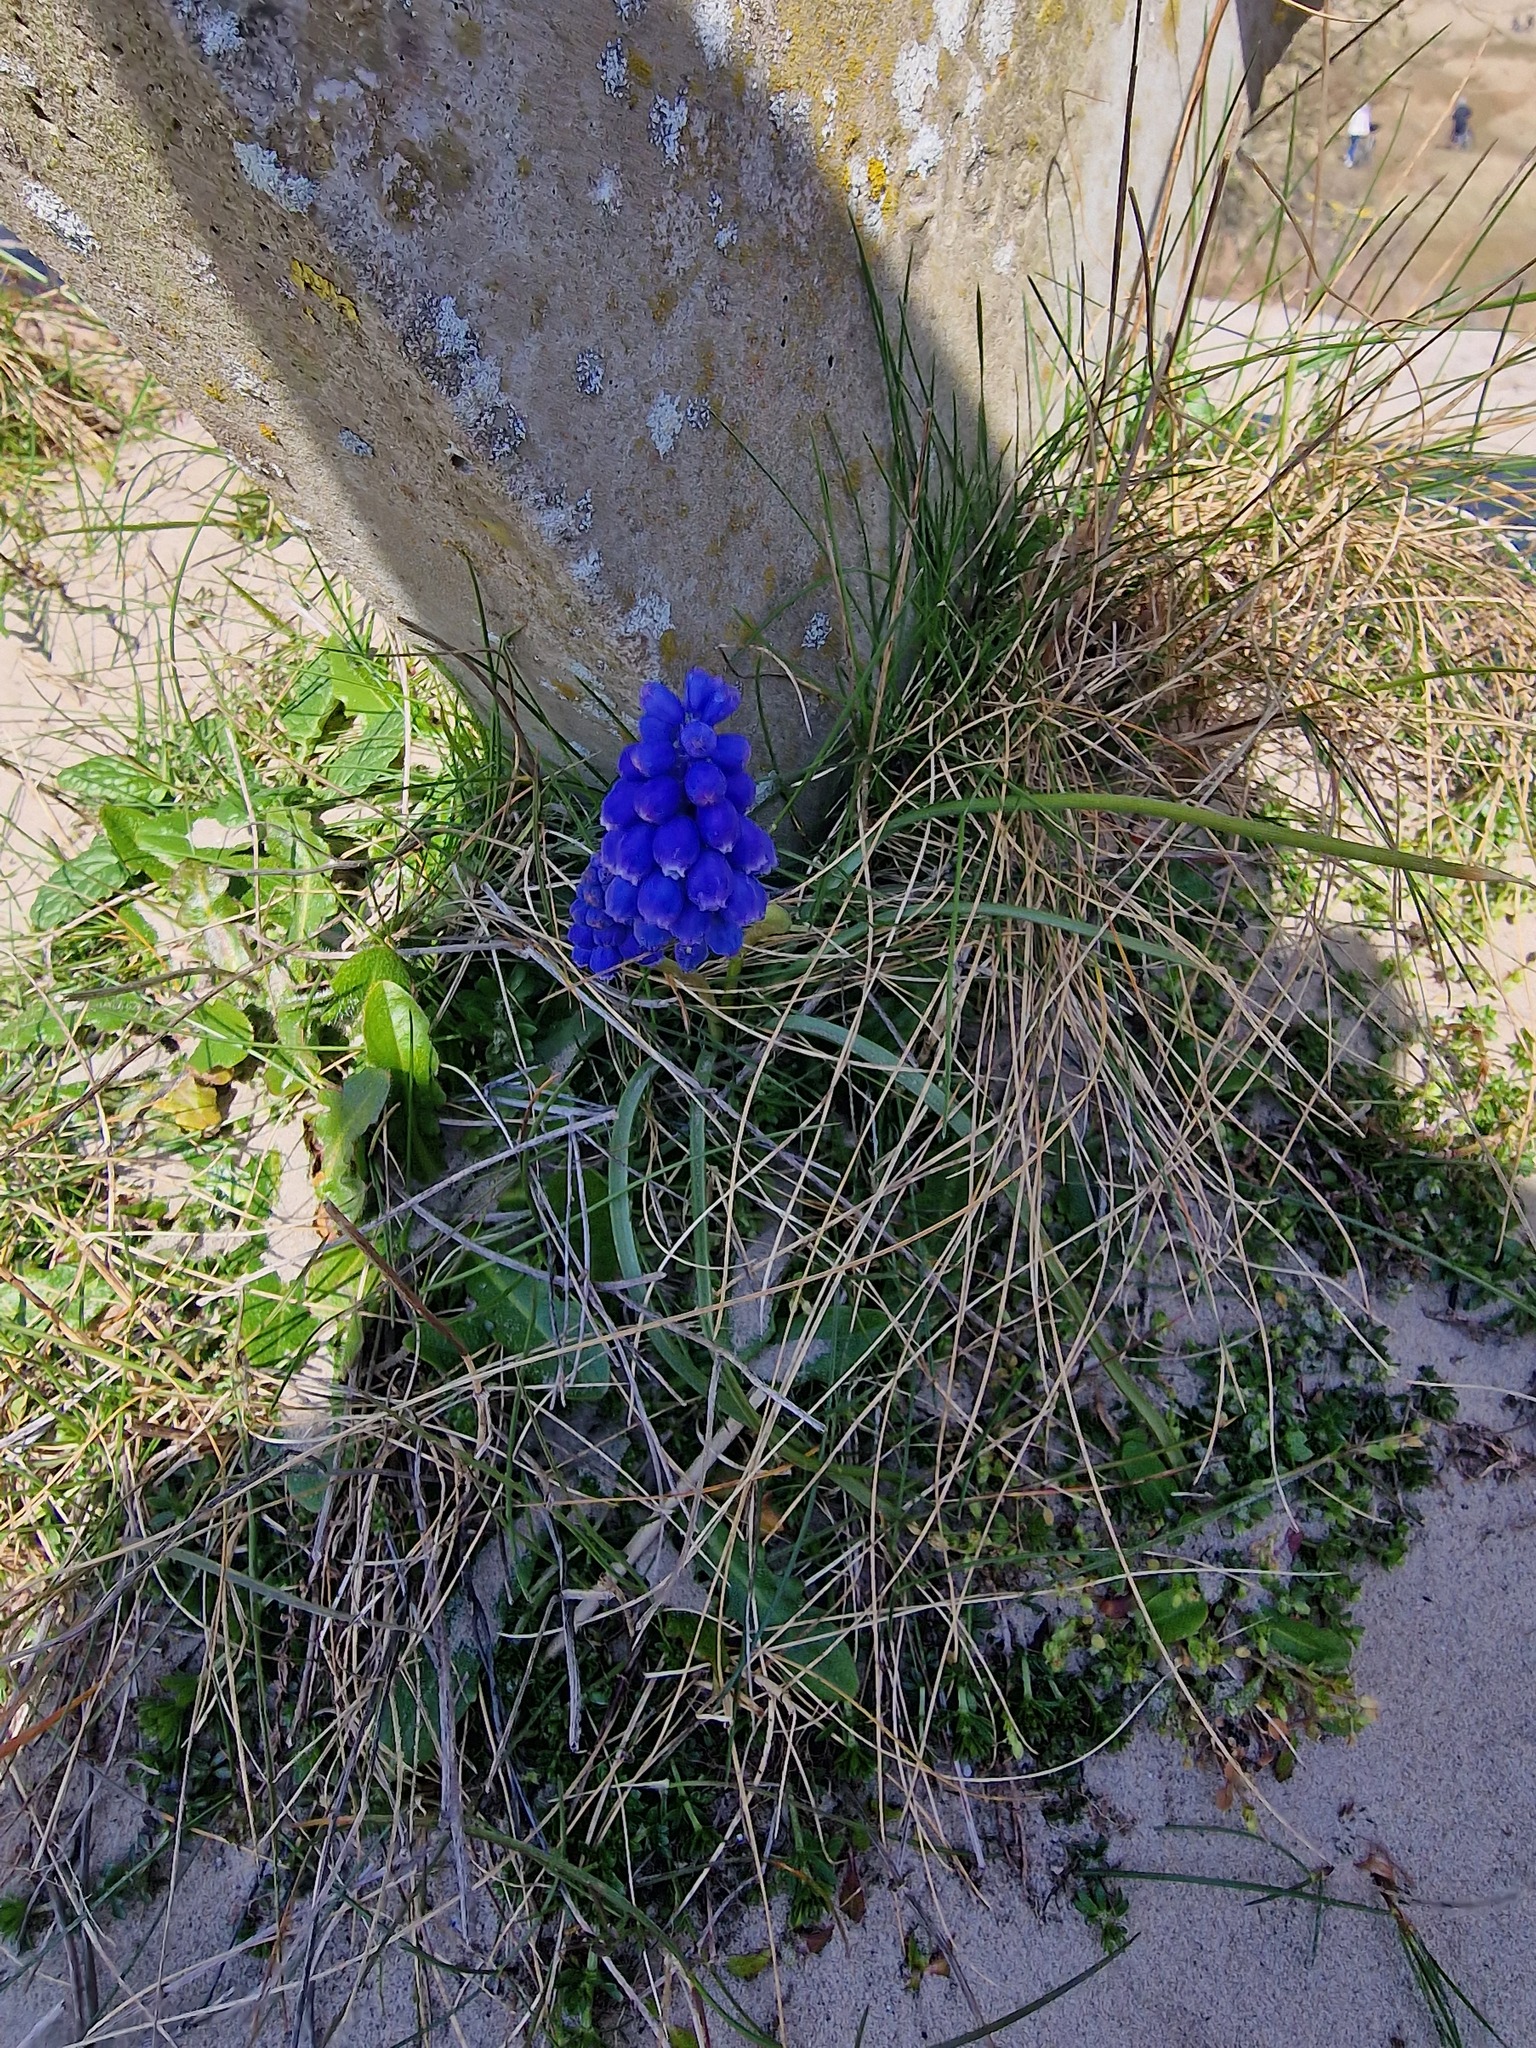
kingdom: Plantae
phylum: Tracheophyta
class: Liliopsida
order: Asparagales
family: Asparagaceae
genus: Muscari
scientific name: Muscari armeniacum
